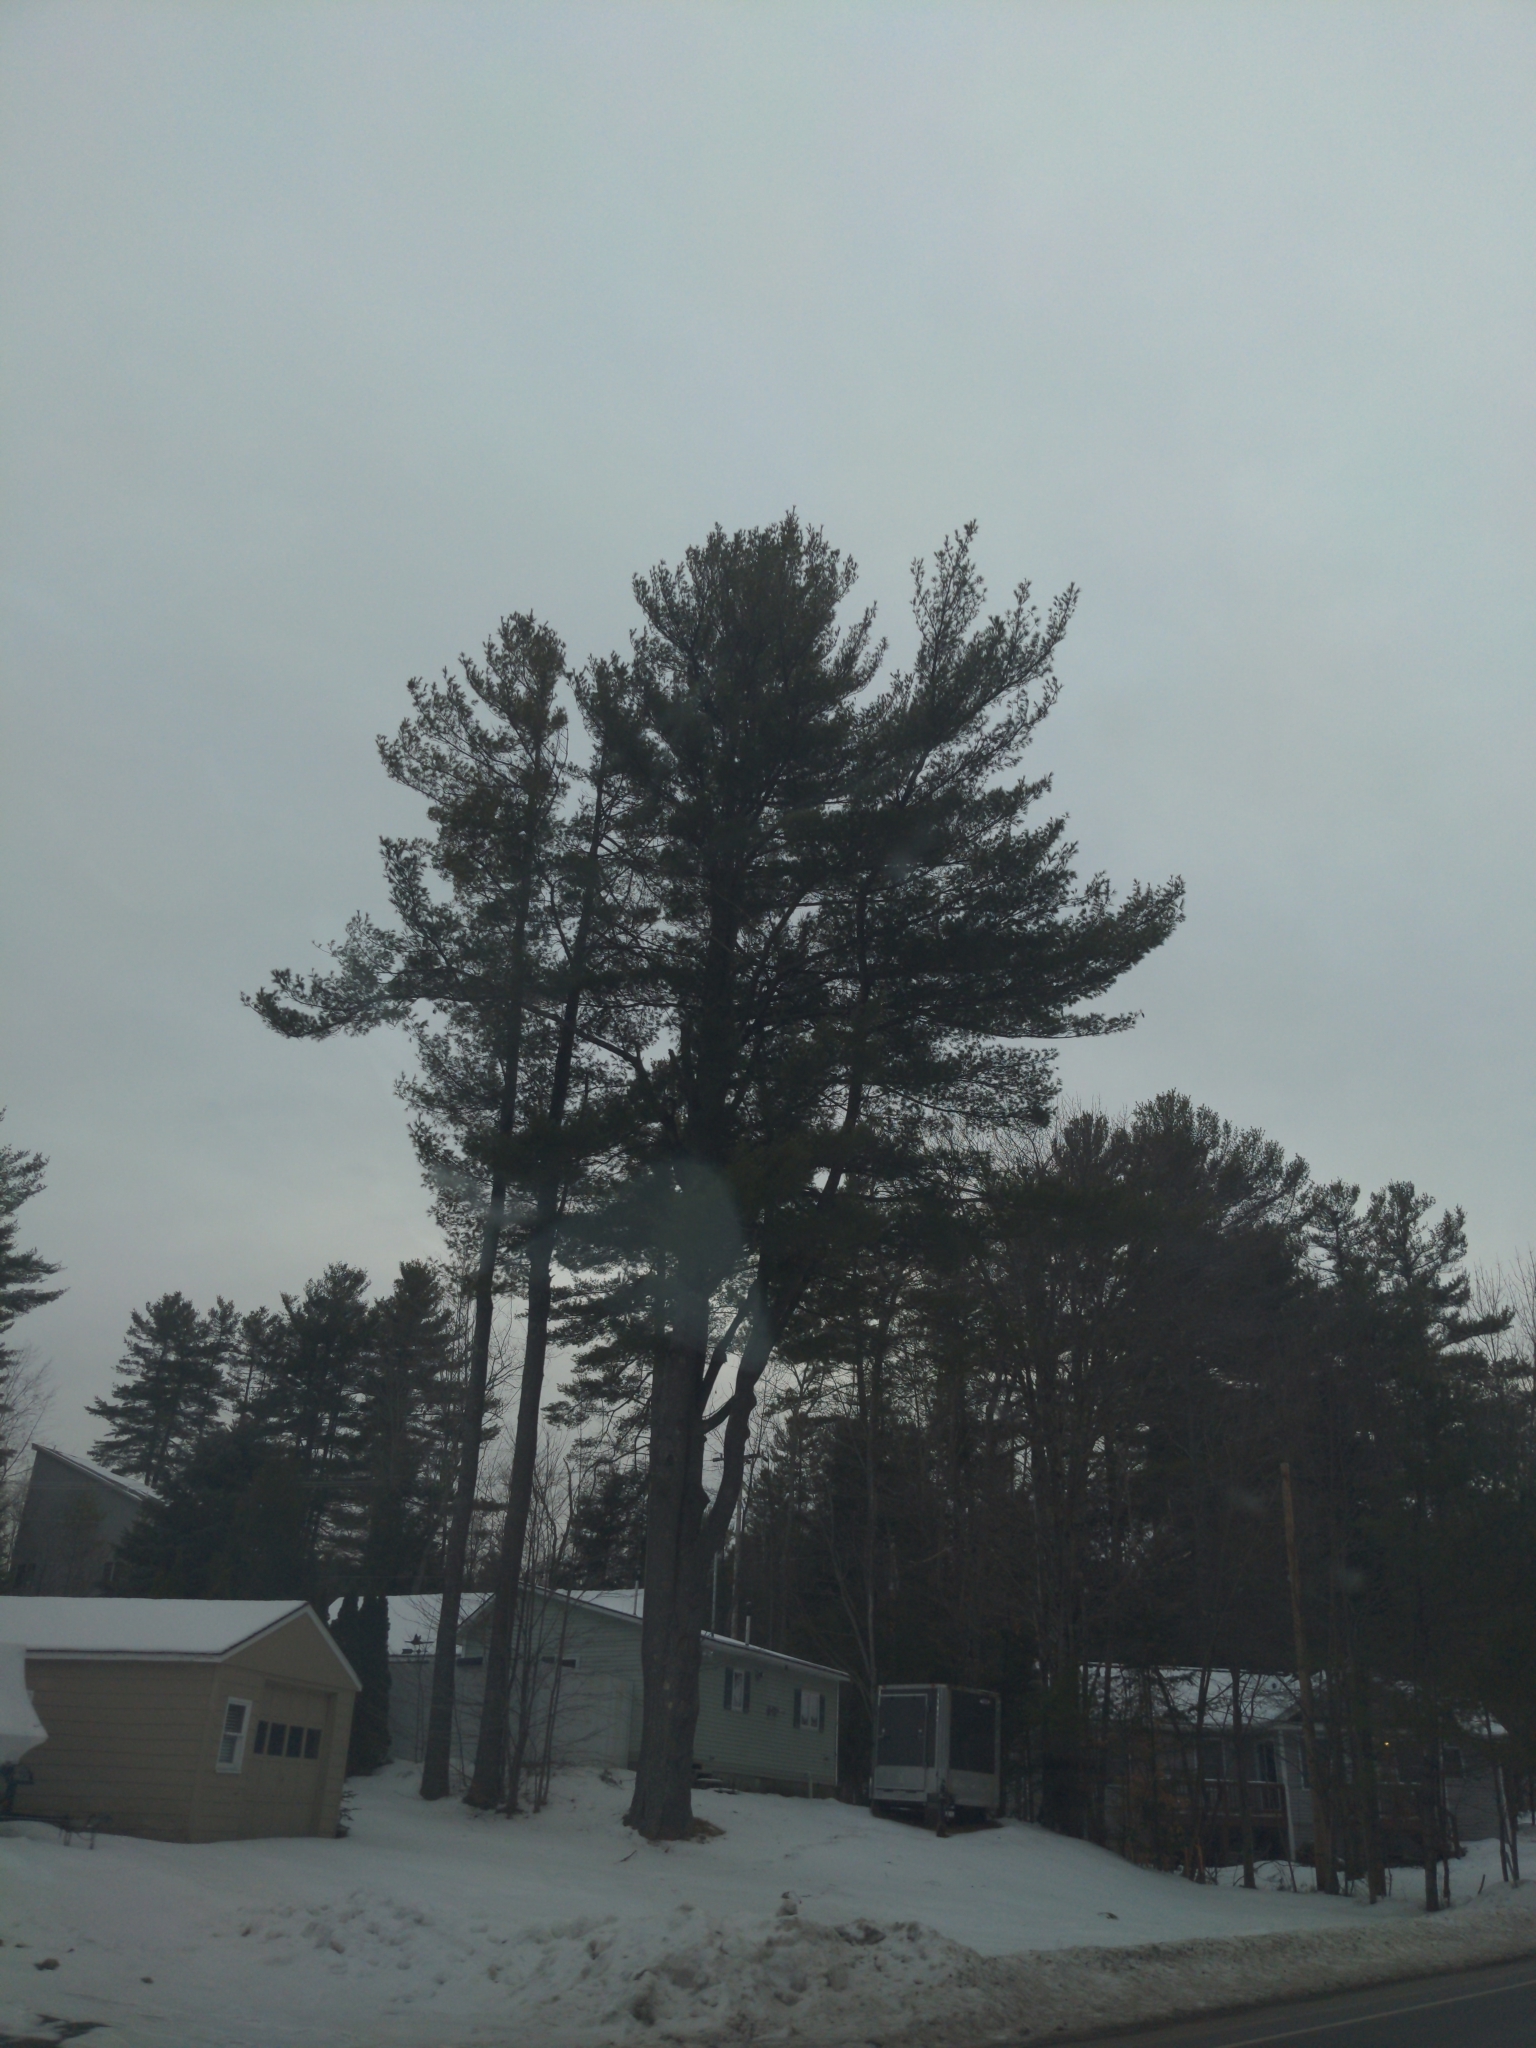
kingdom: Plantae
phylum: Tracheophyta
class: Pinopsida
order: Pinales
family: Pinaceae
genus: Pinus
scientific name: Pinus strobus
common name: Weymouth pine
